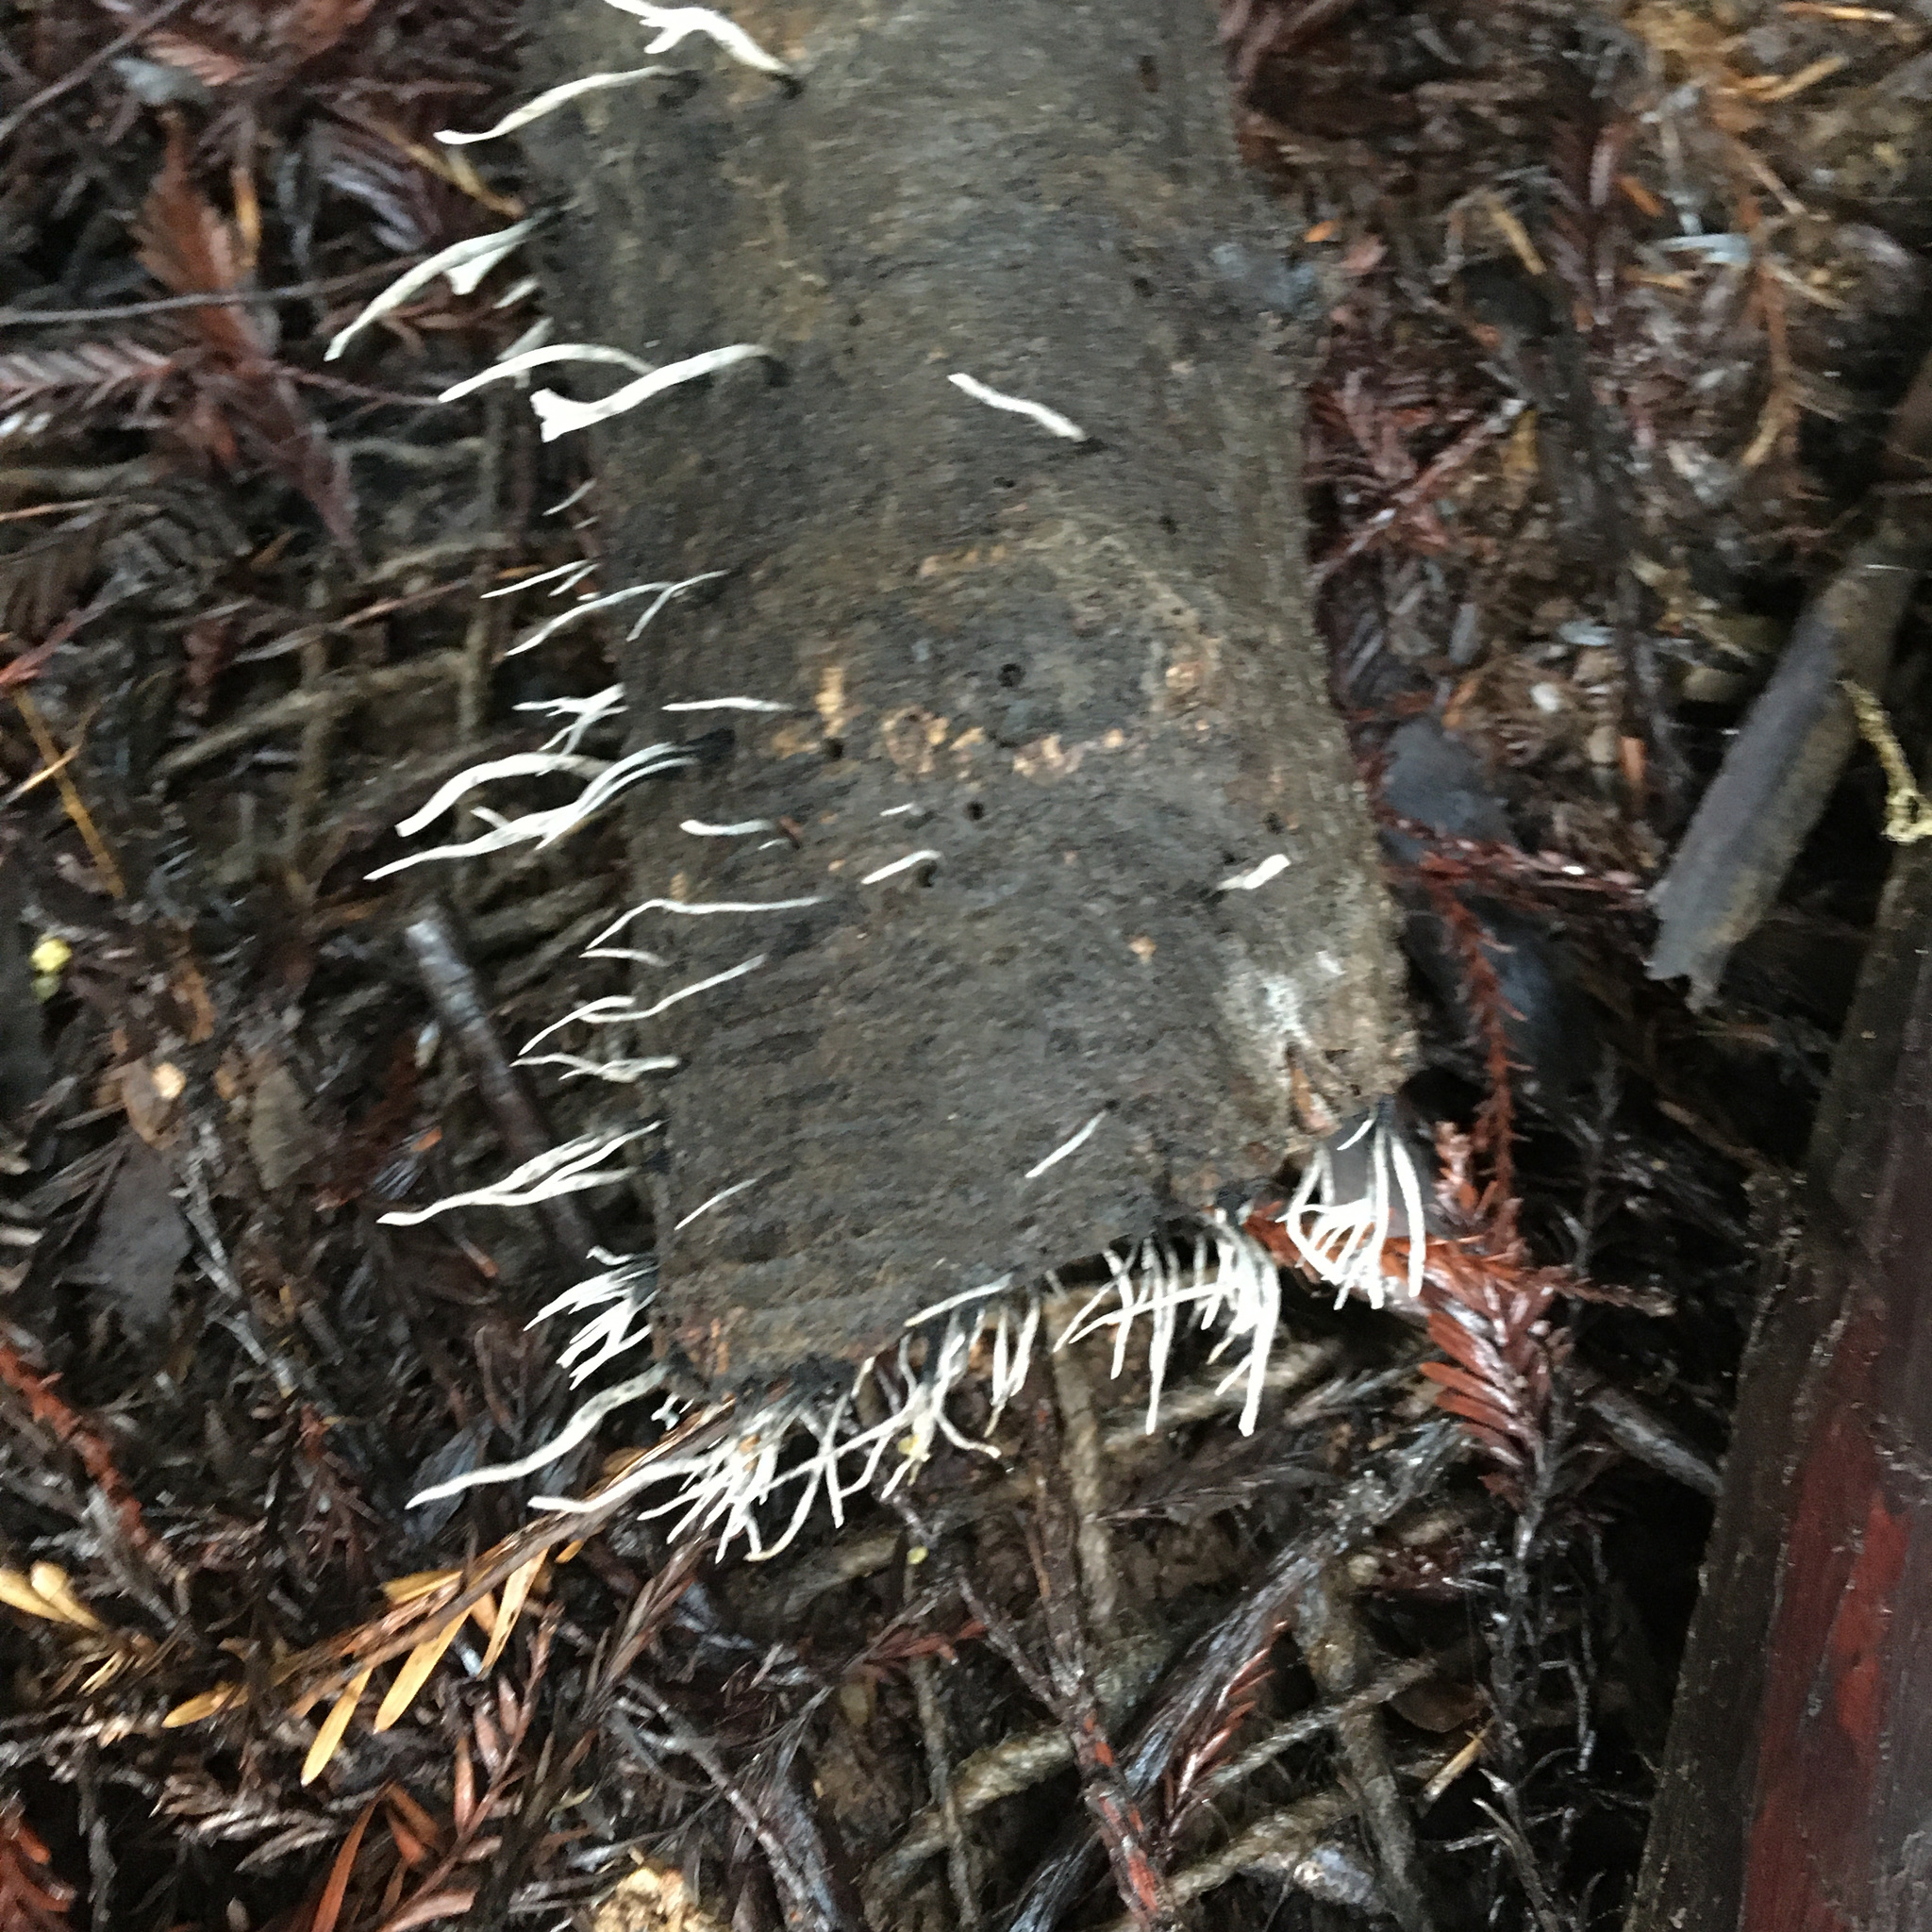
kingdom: Fungi
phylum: Ascomycota
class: Sordariomycetes
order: Xylariales
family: Xylariaceae
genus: Xylaria
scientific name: Xylaria hypoxylon
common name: Candle-snuff fungus
